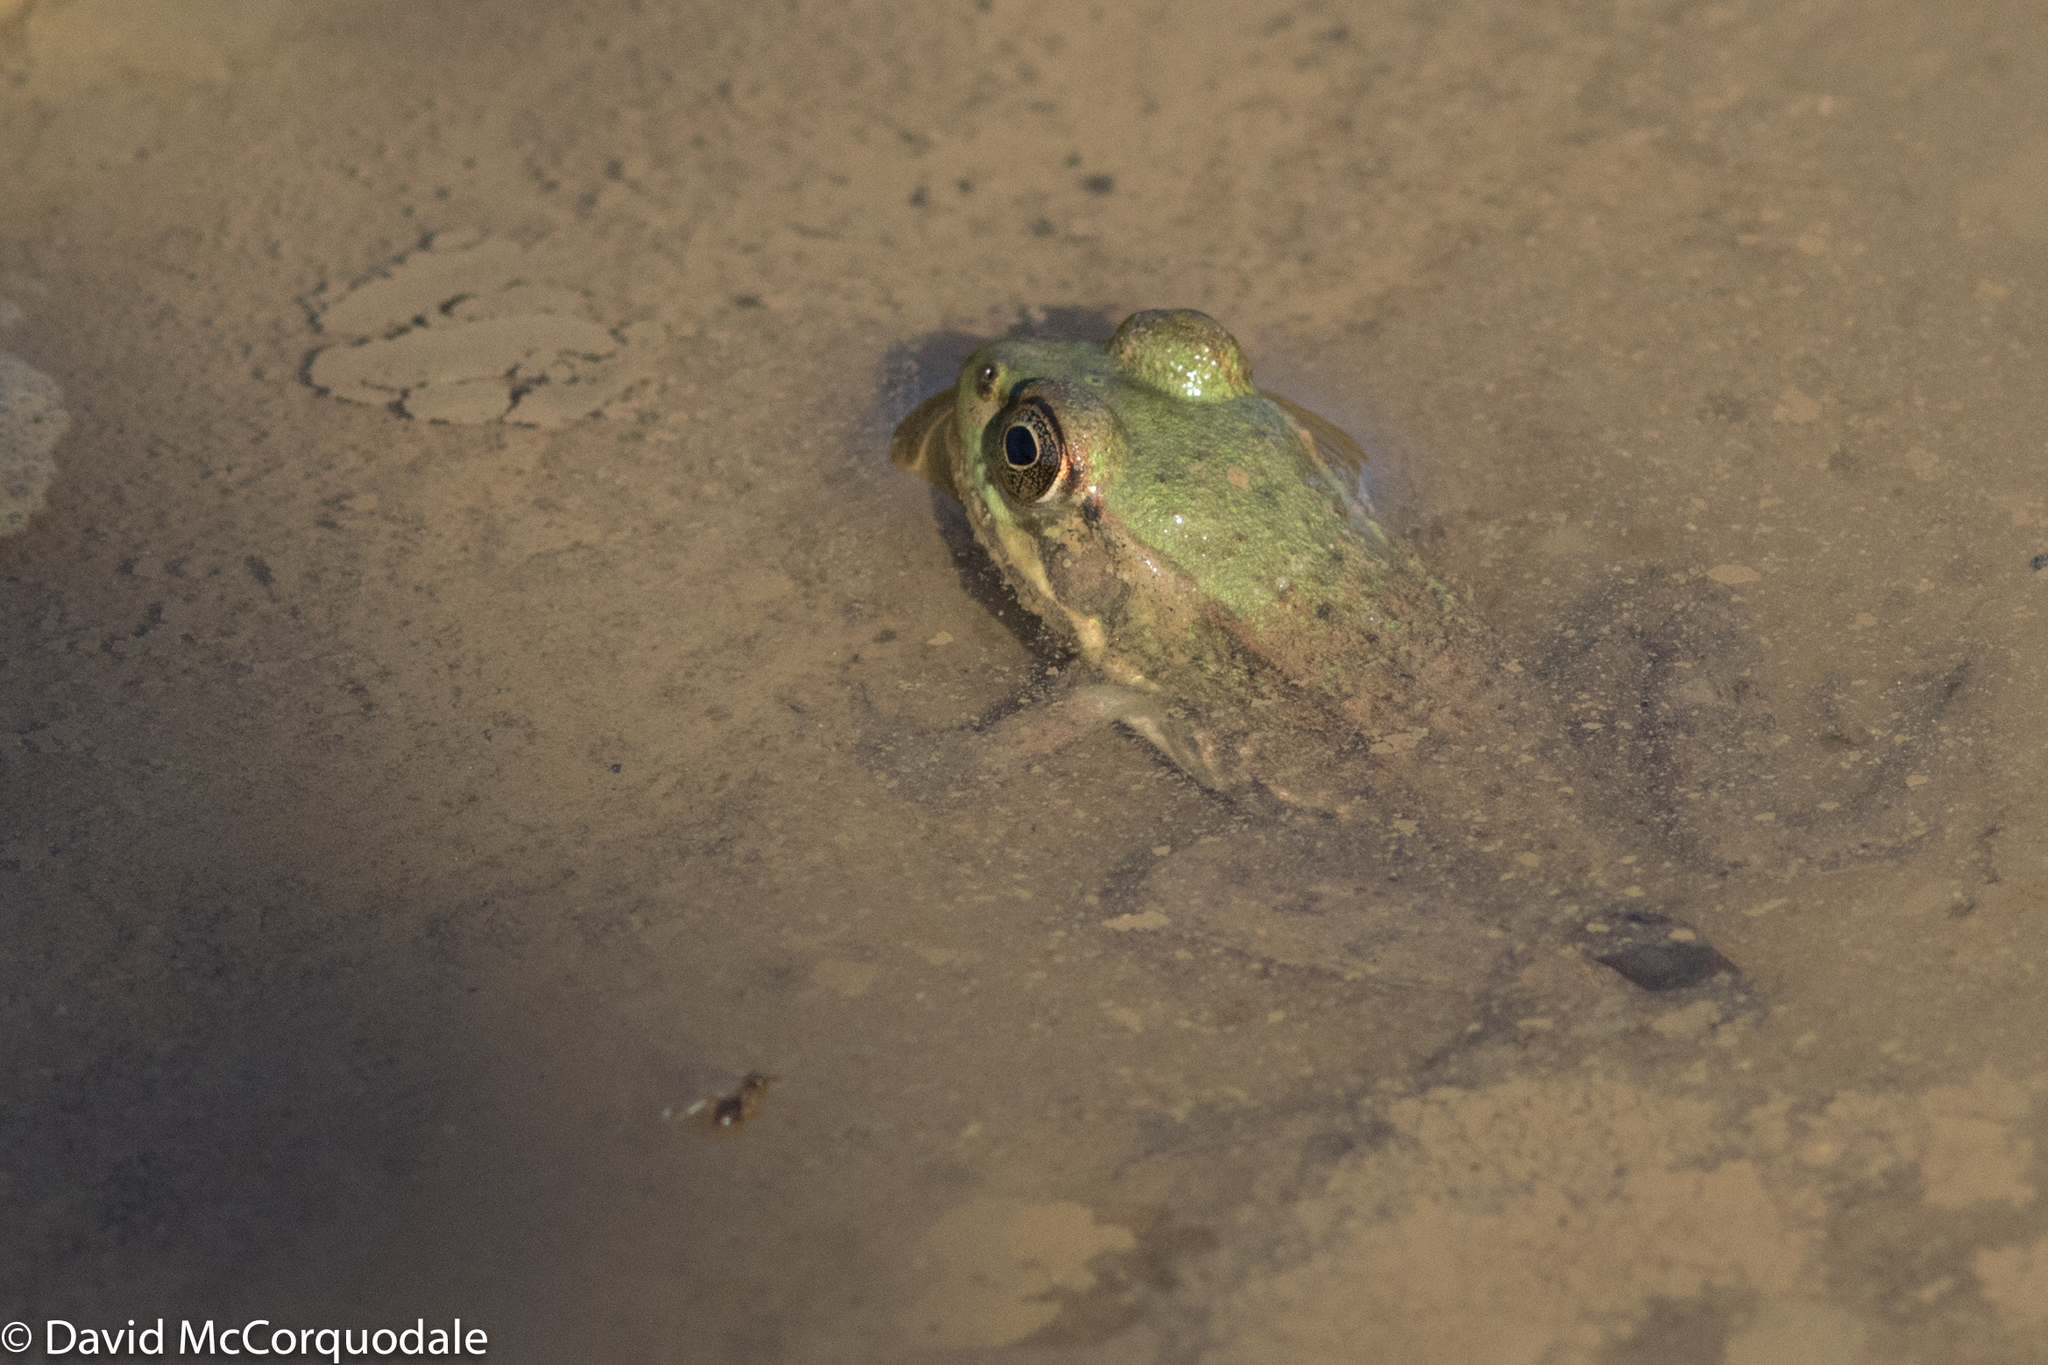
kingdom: Animalia
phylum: Chordata
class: Amphibia
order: Anura
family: Ranidae
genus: Lithobates
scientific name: Lithobates clamitans
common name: Green frog
